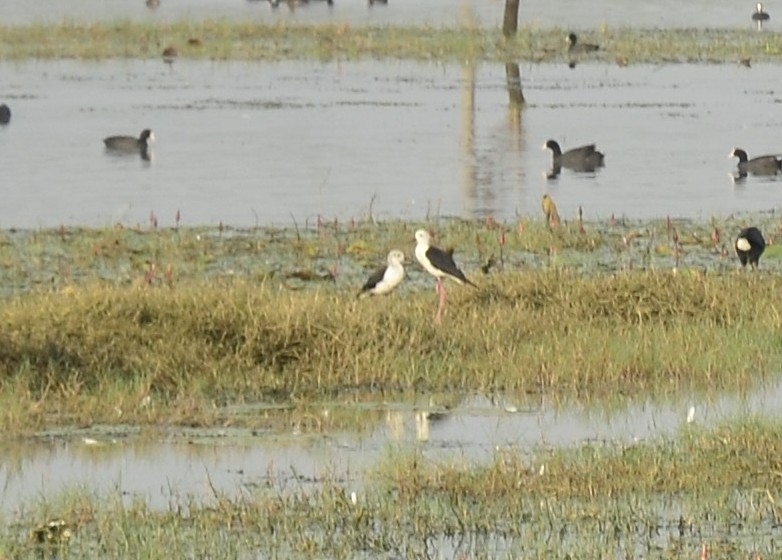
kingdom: Animalia
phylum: Chordata
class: Aves
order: Charadriiformes
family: Recurvirostridae
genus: Himantopus
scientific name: Himantopus himantopus
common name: Black-winged stilt
